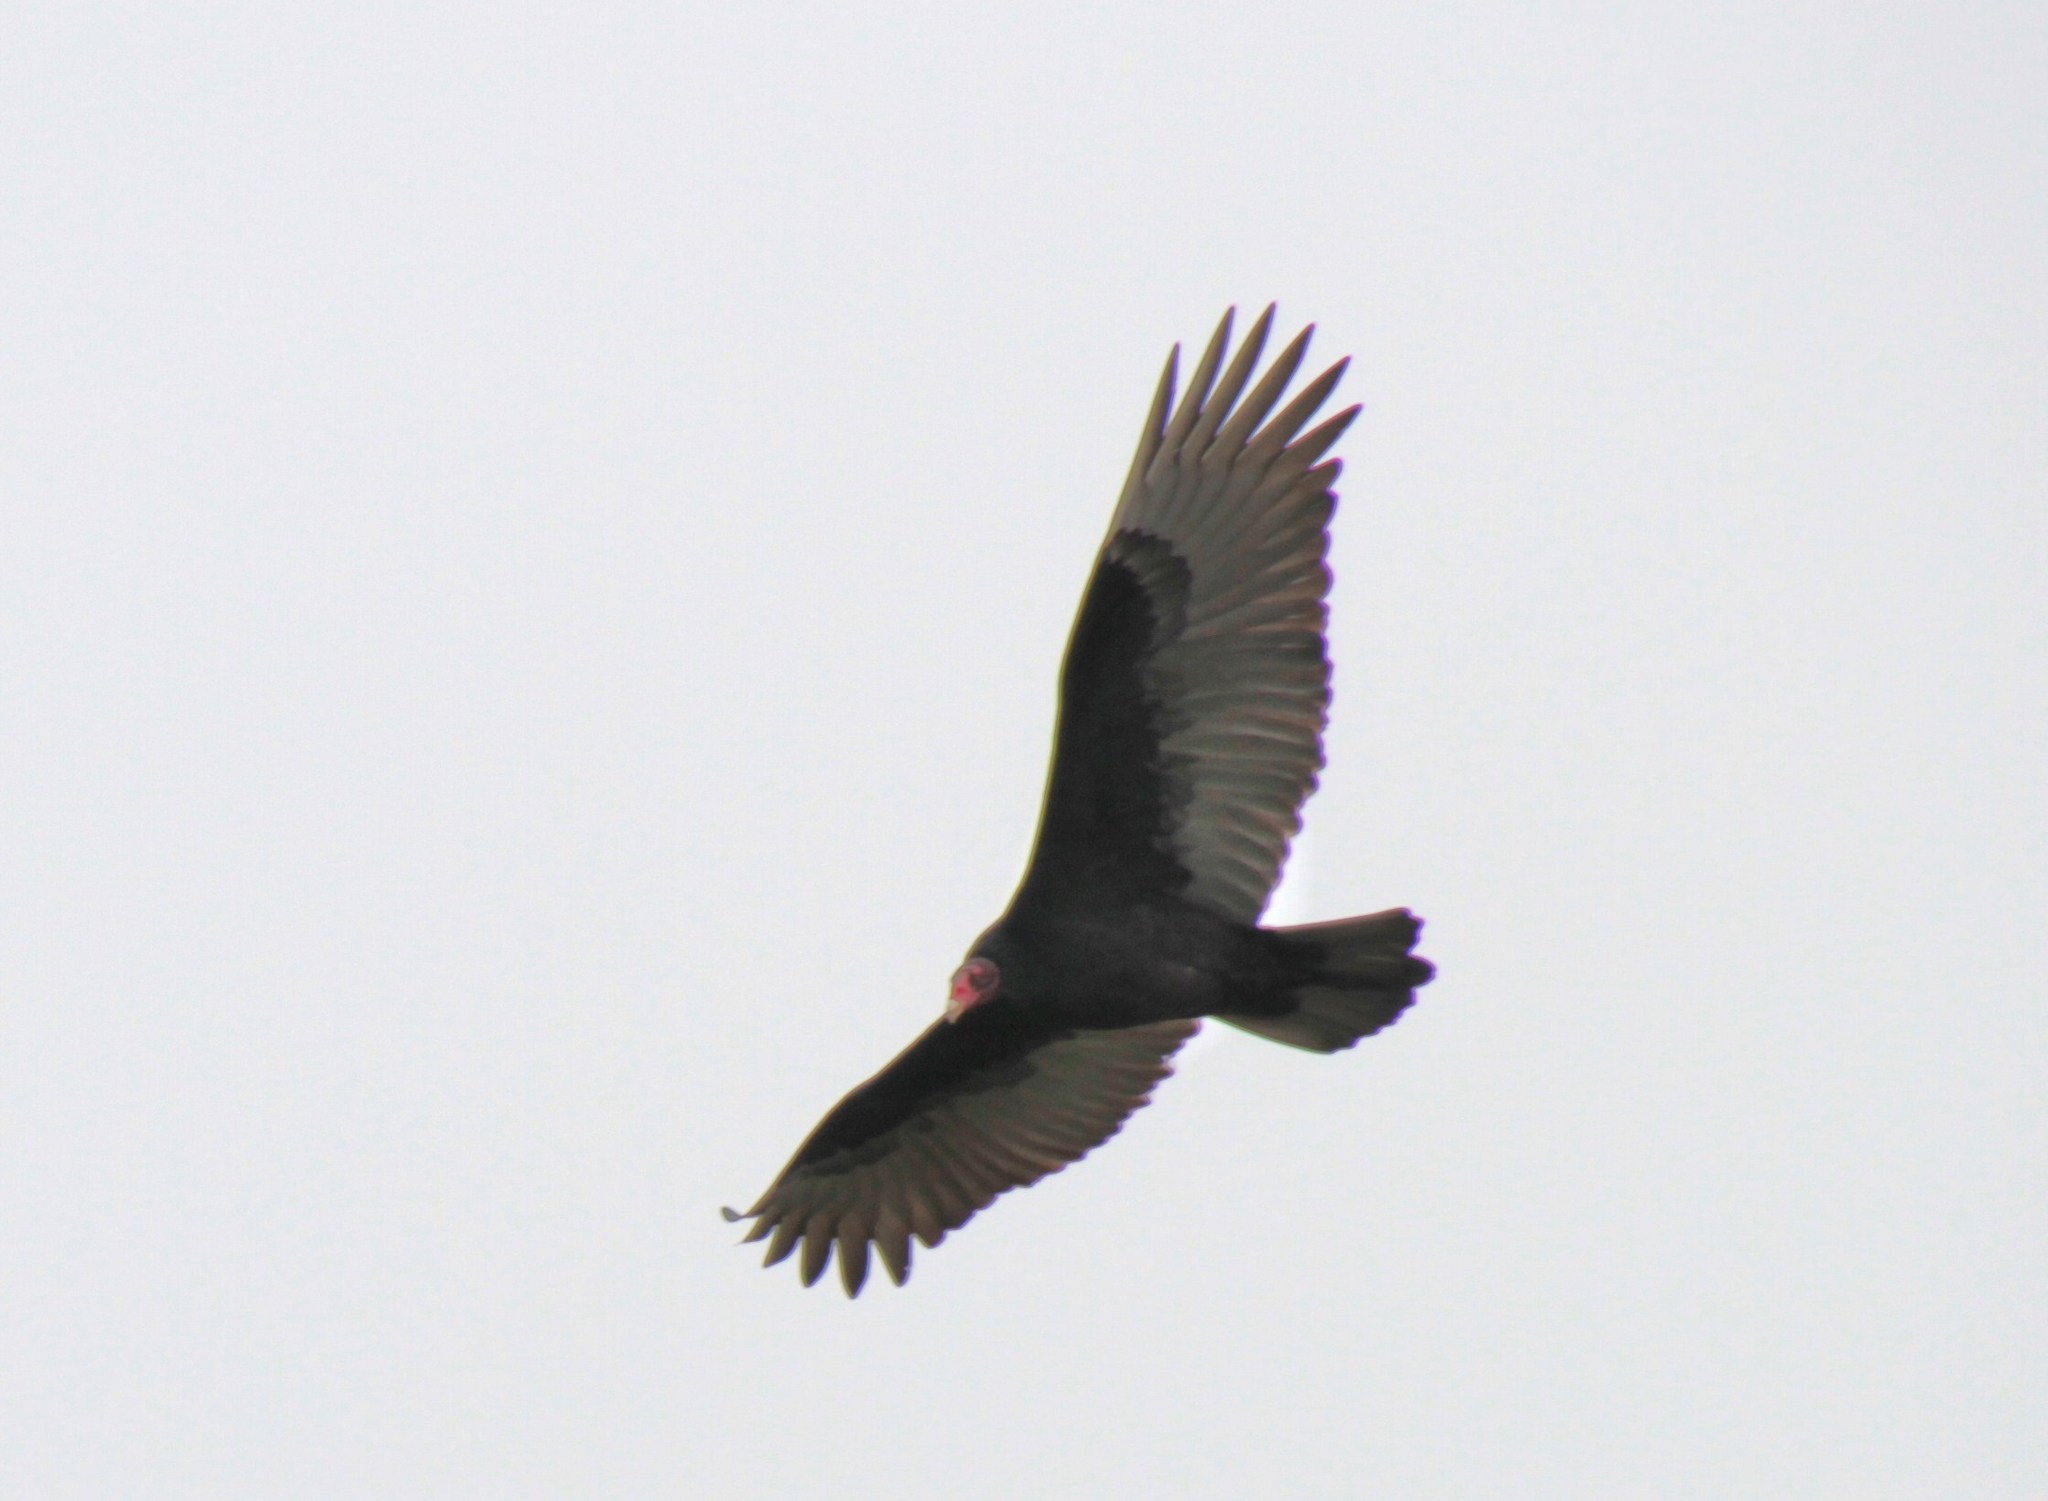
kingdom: Animalia
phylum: Chordata
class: Aves
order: Accipitriformes
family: Cathartidae
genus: Cathartes
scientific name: Cathartes aura
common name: Turkey vulture
